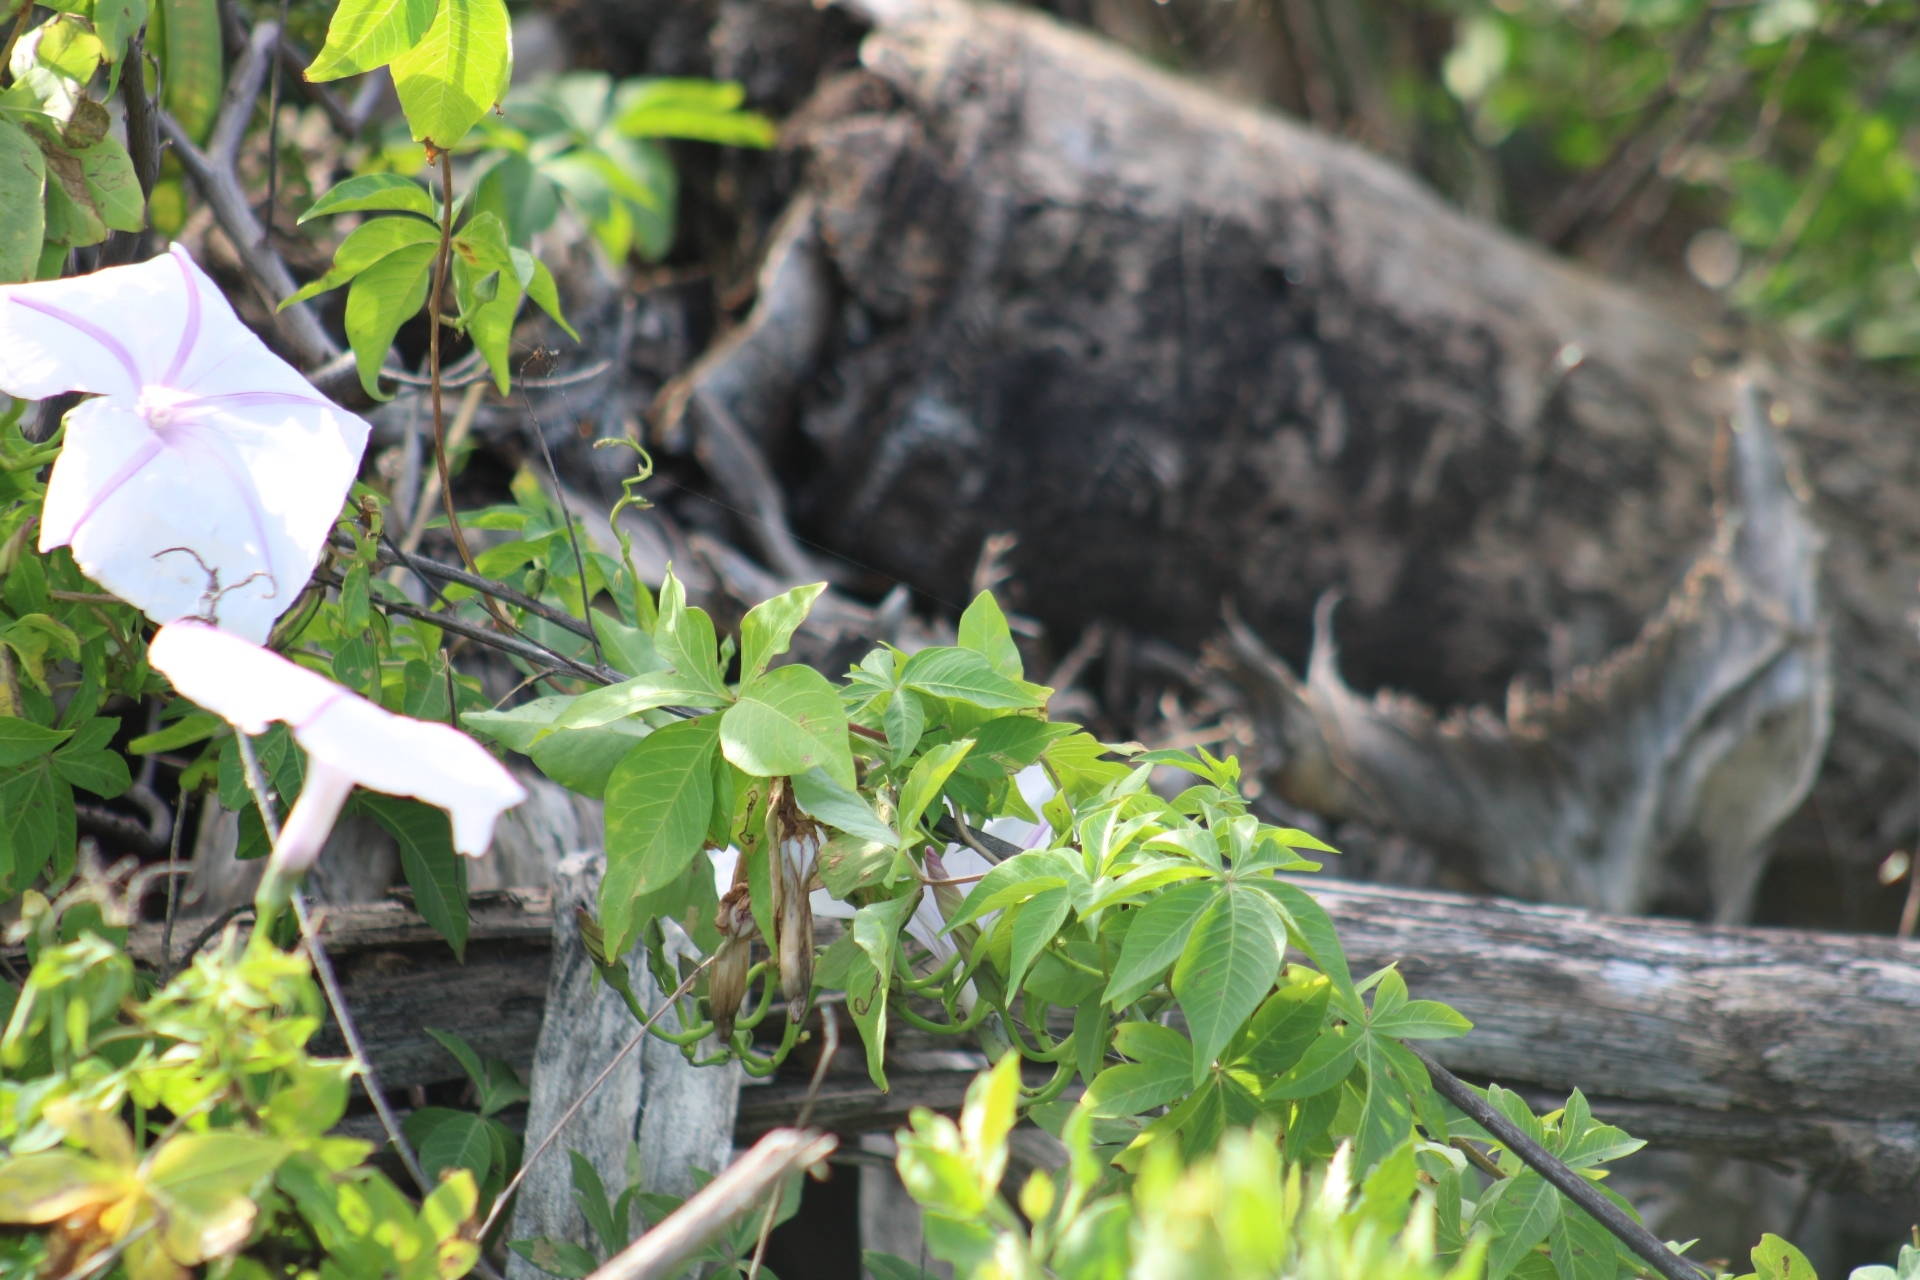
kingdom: Plantae
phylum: Tracheophyta
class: Magnoliopsida
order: Solanales
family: Convolvulaceae
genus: Ipomoea
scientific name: Ipomoea cairica
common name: Mile a minute vine
